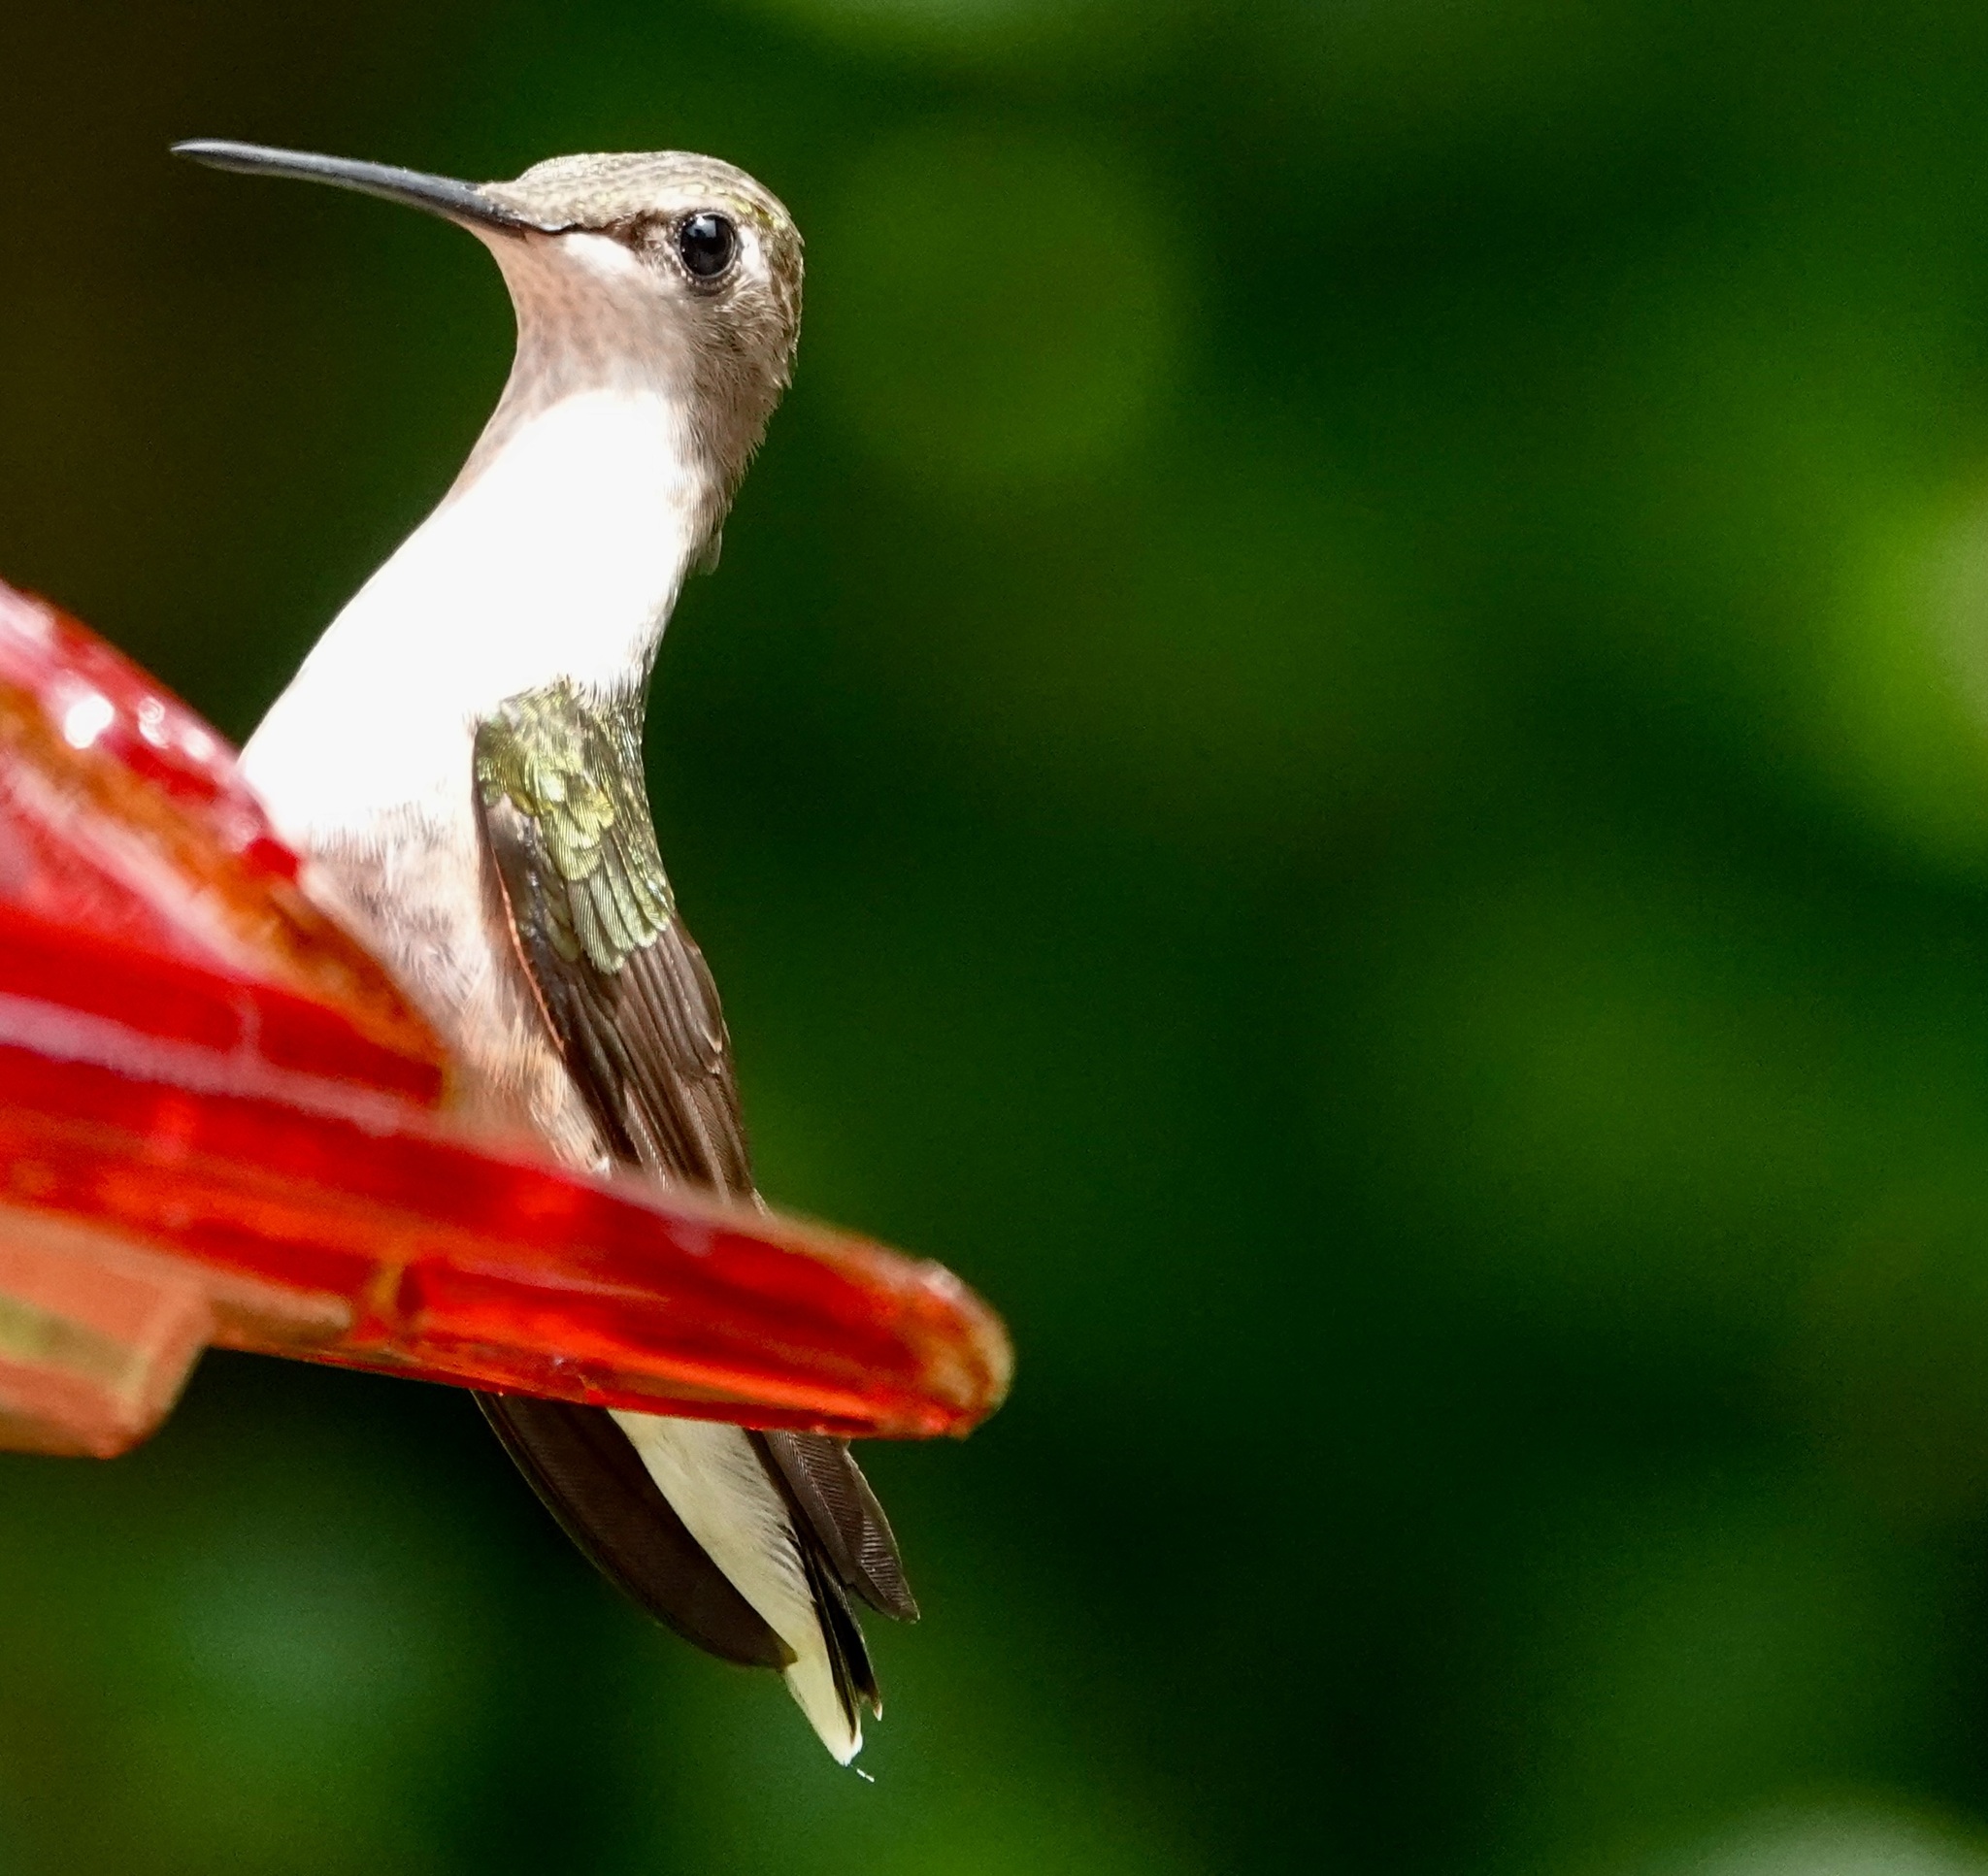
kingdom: Animalia
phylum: Chordata
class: Aves
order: Apodiformes
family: Trochilidae
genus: Archilochus
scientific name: Archilochus colubris
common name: Ruby-throated hummingbird
